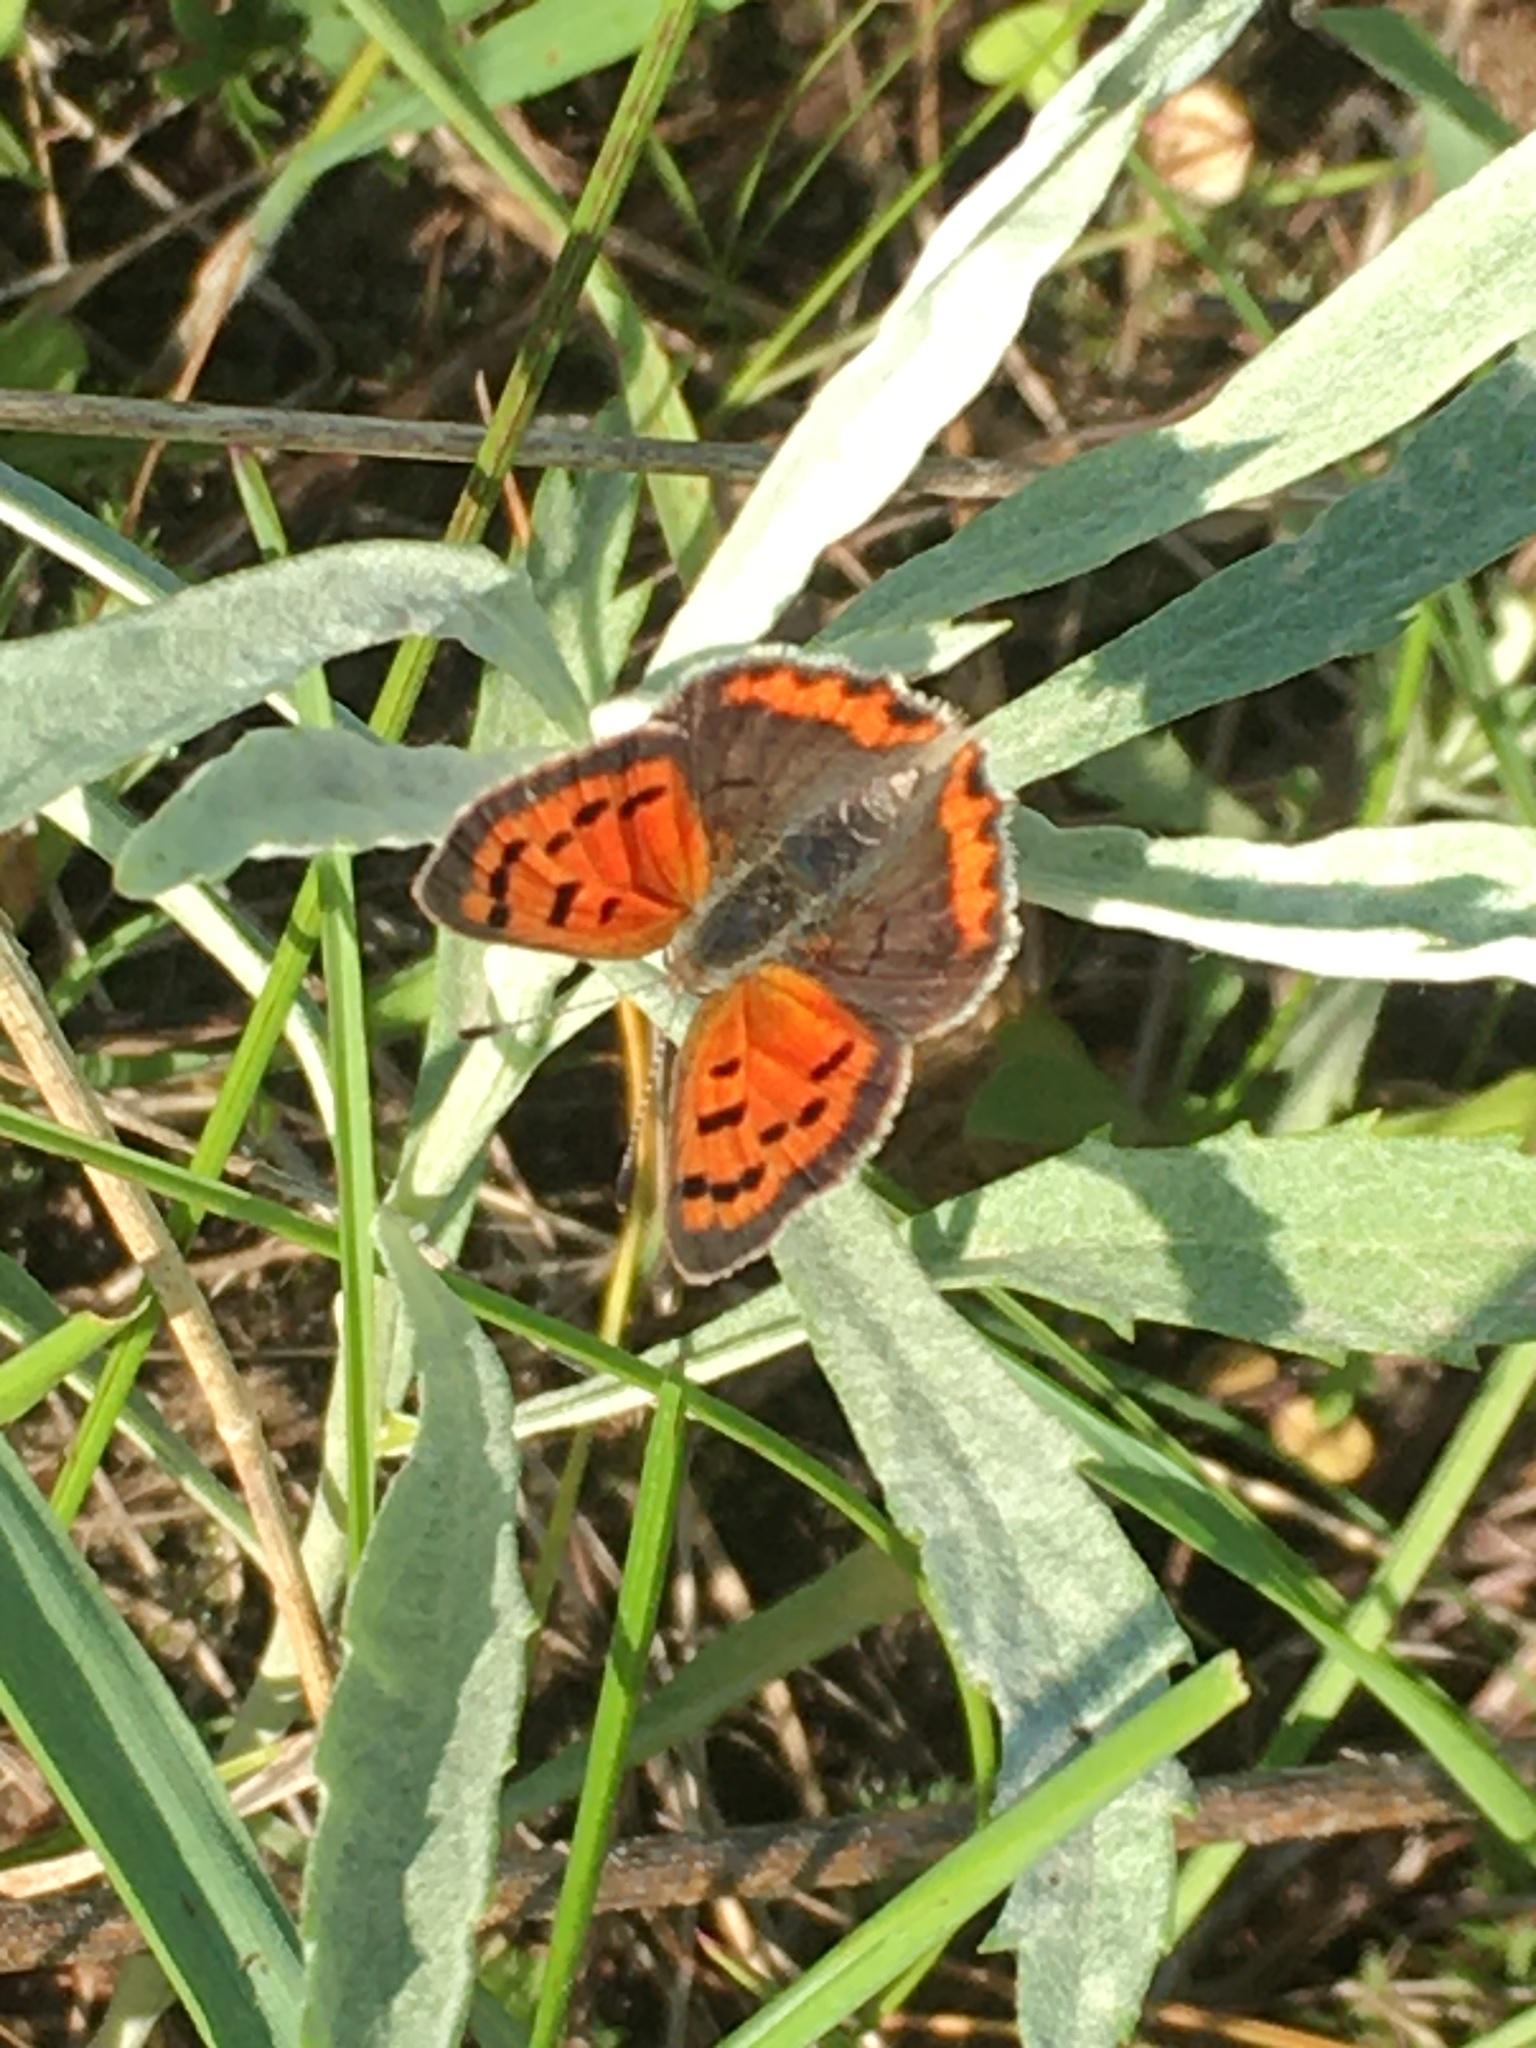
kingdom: Animalia
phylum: Arthropoda
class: Insecta
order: Lepidoptera
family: Lycaenidae
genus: Lycaena
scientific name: Lycaena hypophlaeas
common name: American copper
